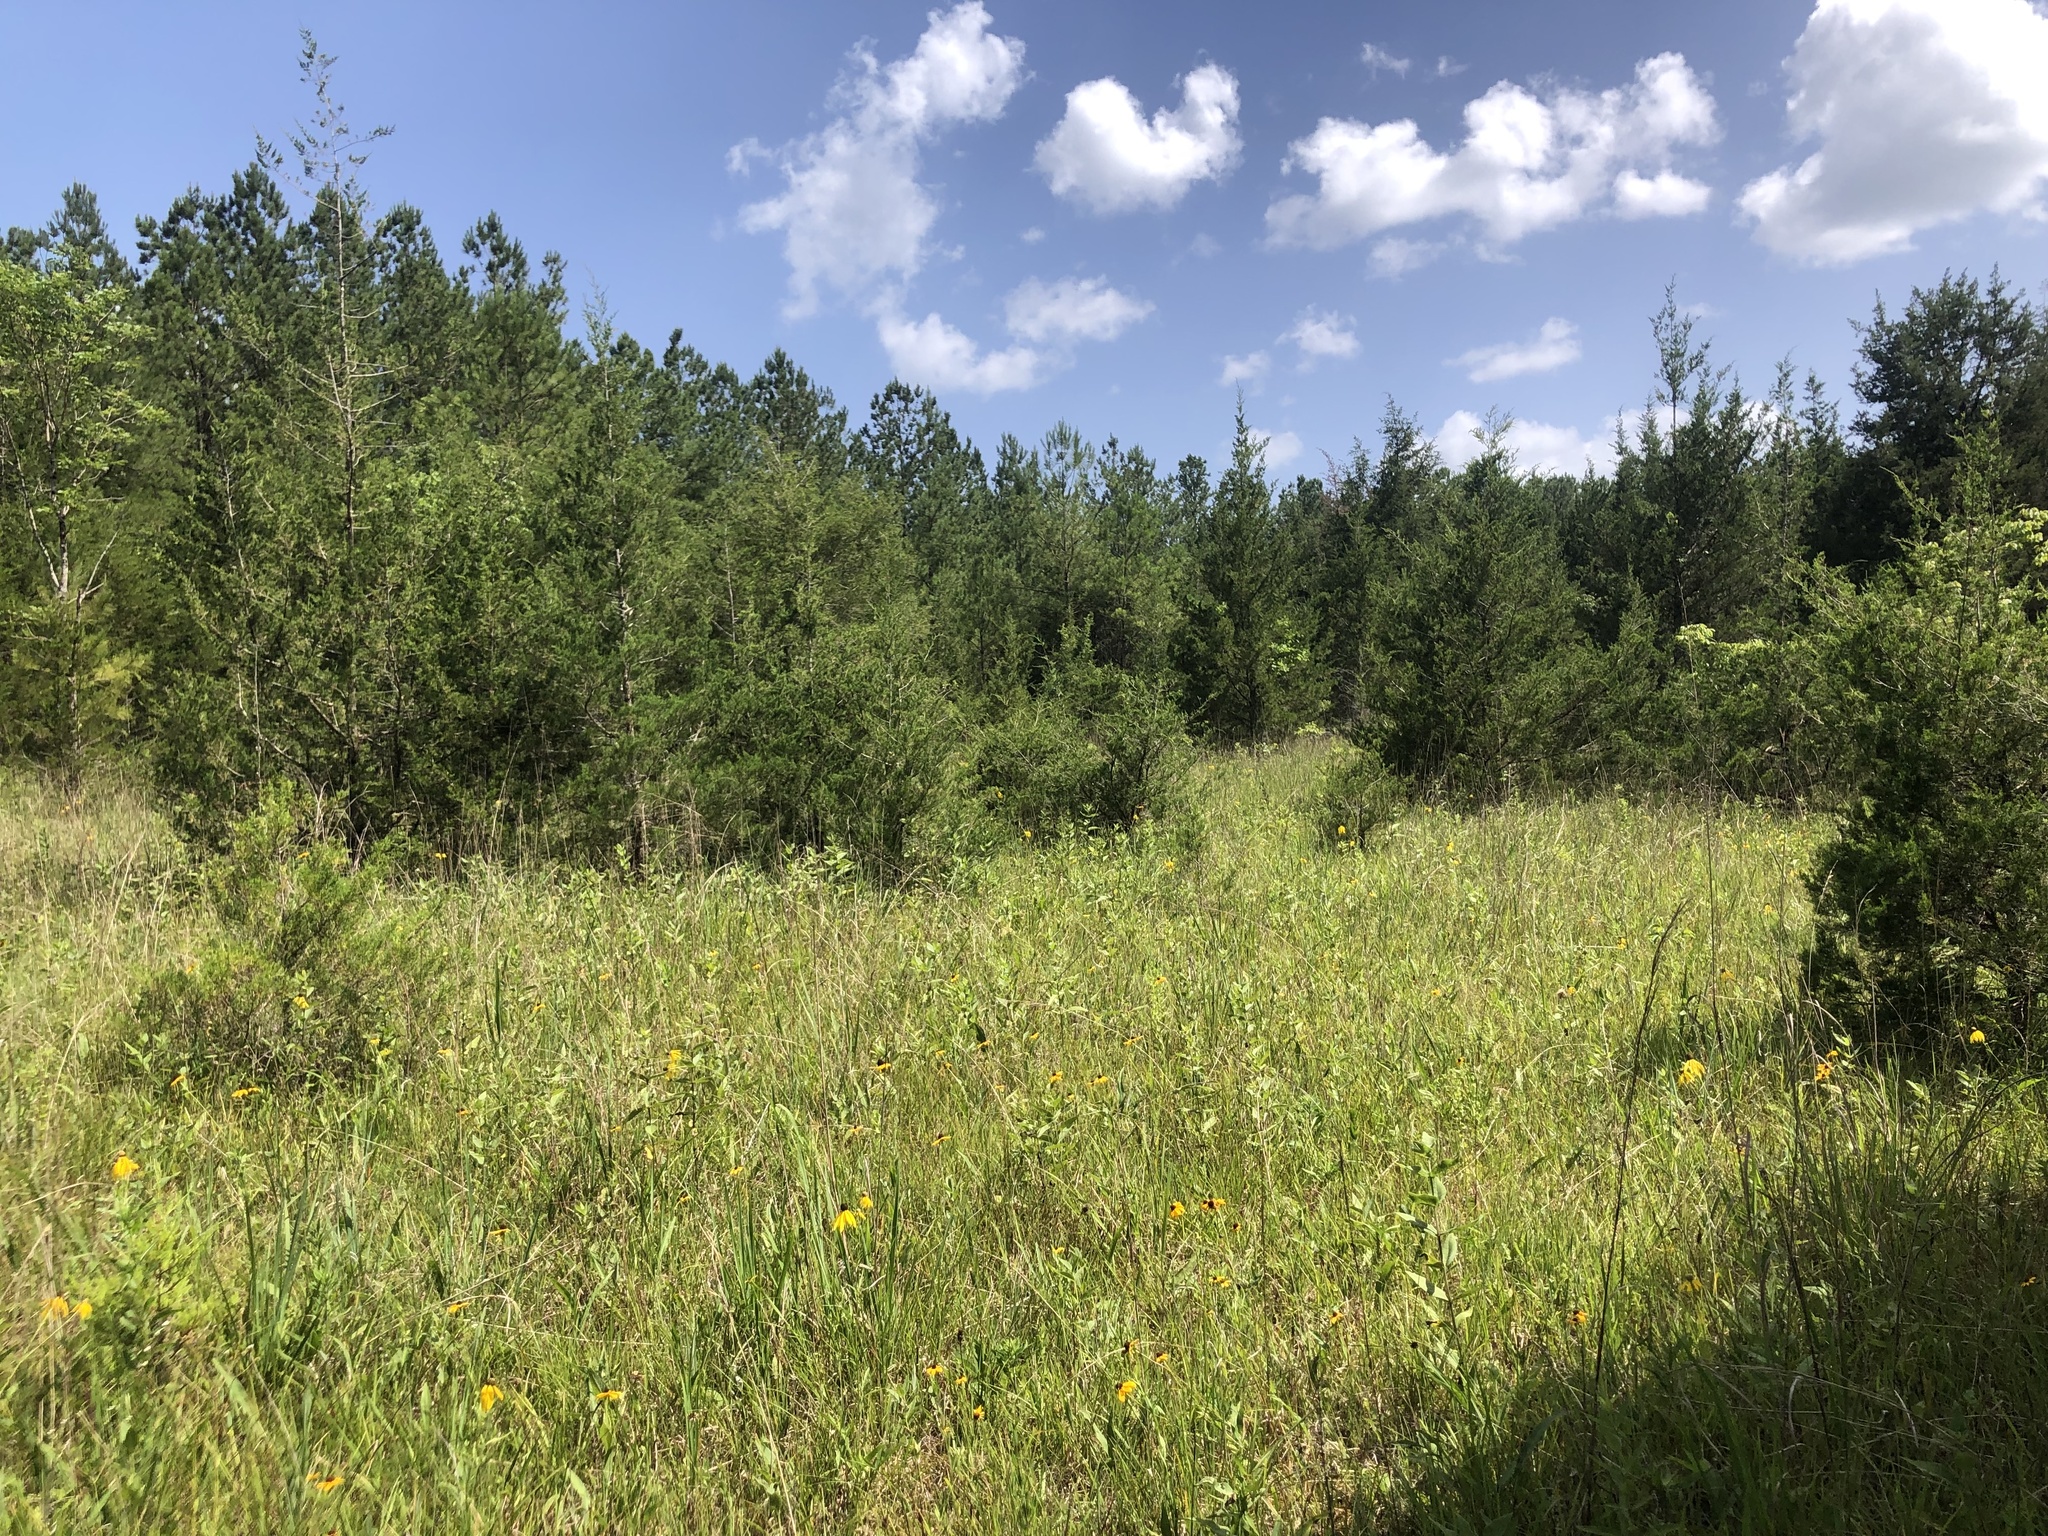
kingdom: Plantae
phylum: Tracheophyta
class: Magnoliopsida
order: Asterales
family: Asteraceae
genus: Ratibida
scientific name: Ratibida pinnata
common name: Drooping prairie-coneflower
